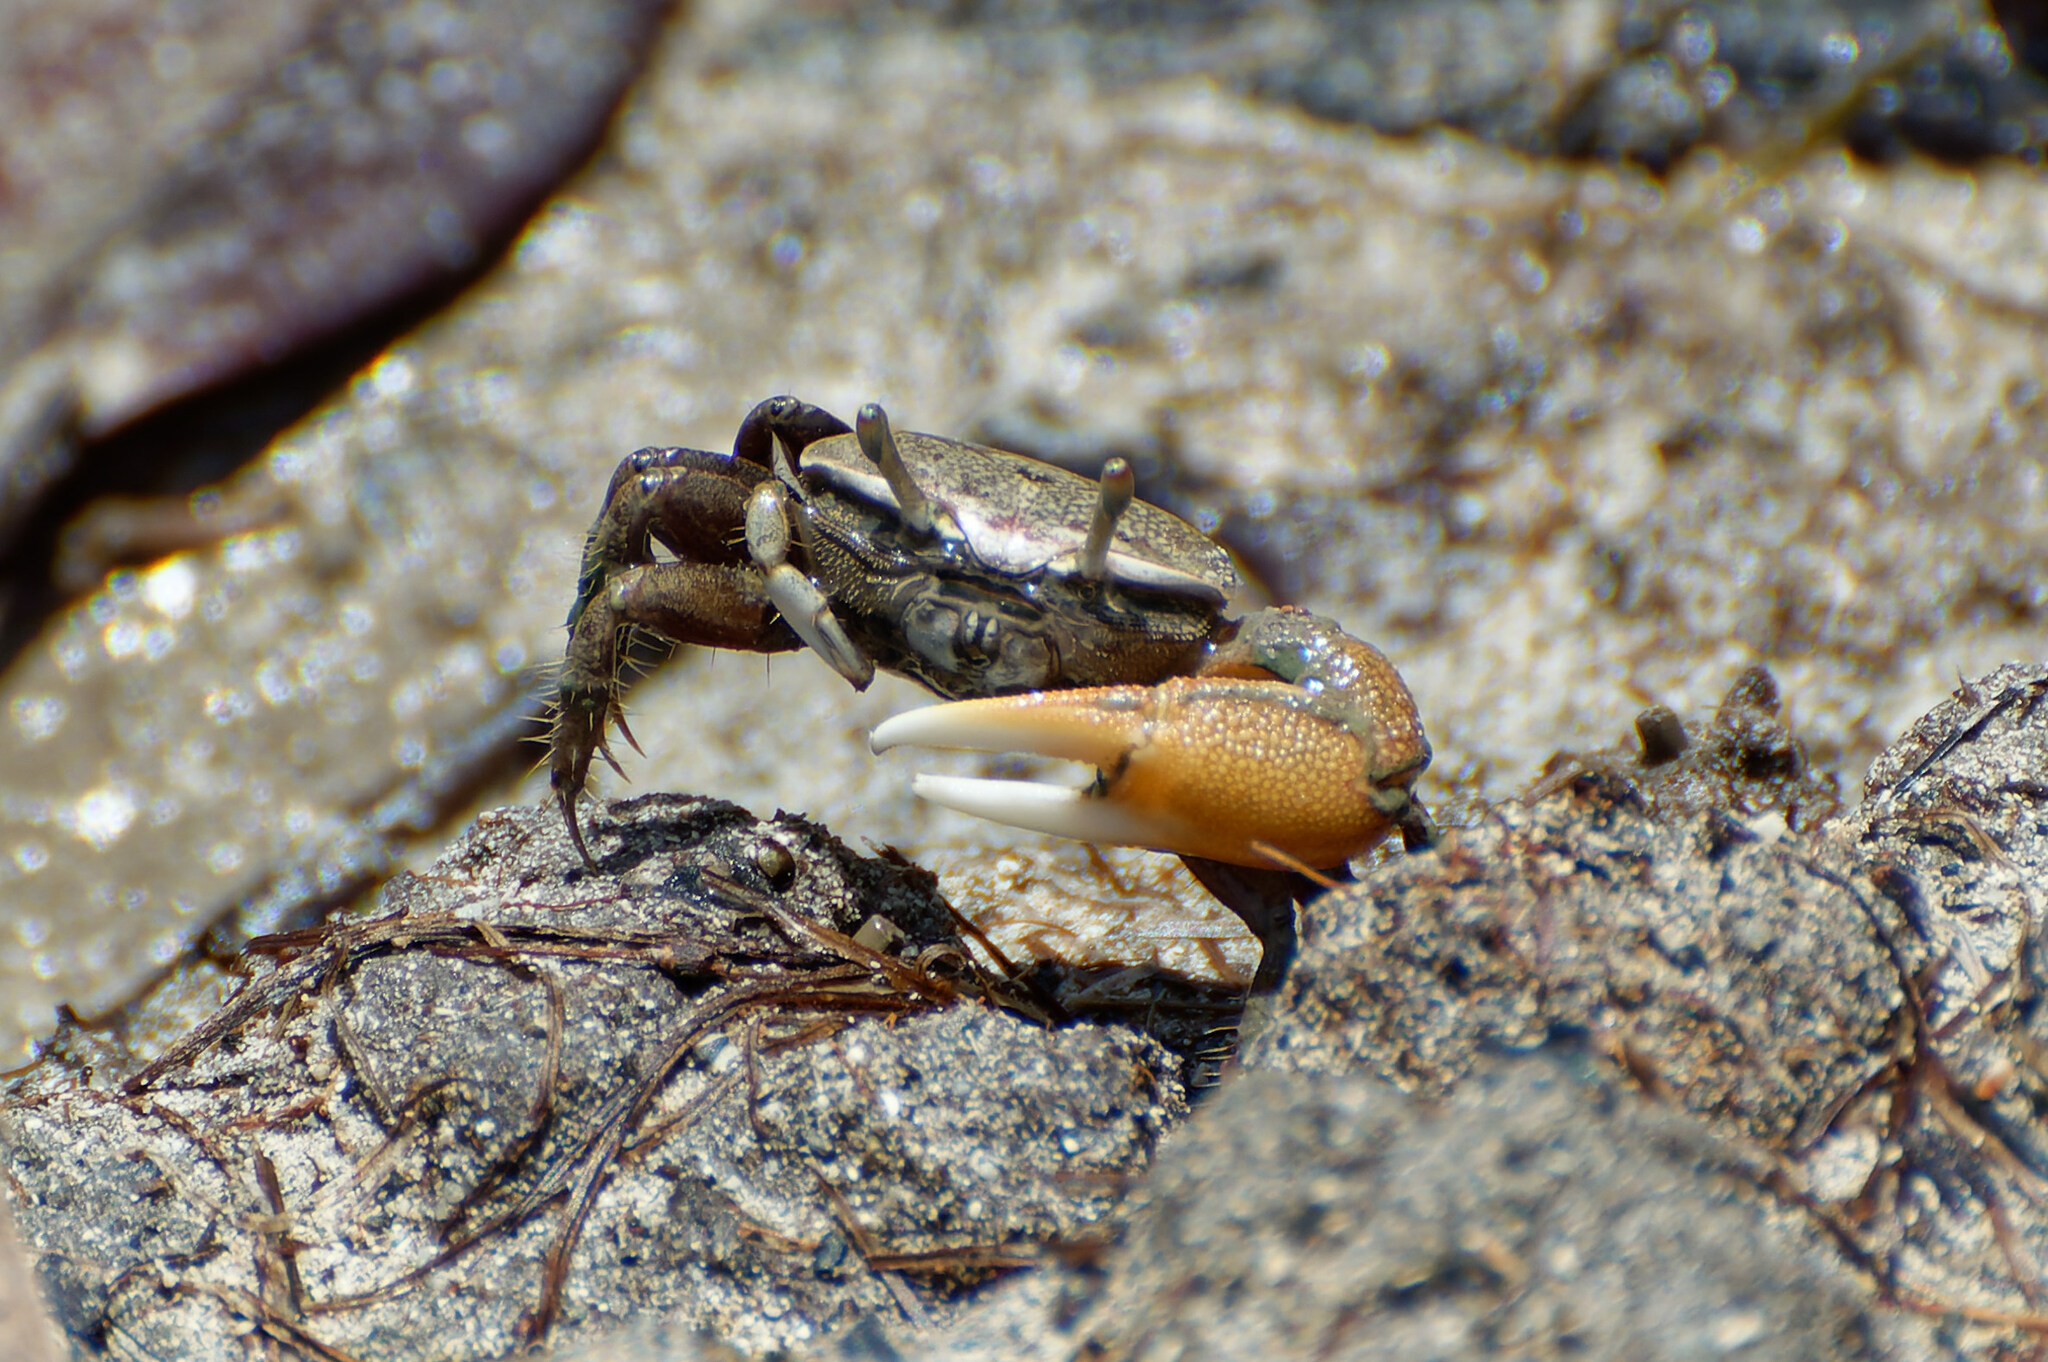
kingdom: Animalia
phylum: Arthropoda
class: Malacostraca
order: Decapoda
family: Ocypodidae
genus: Minuca
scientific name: Minuca burgersi
